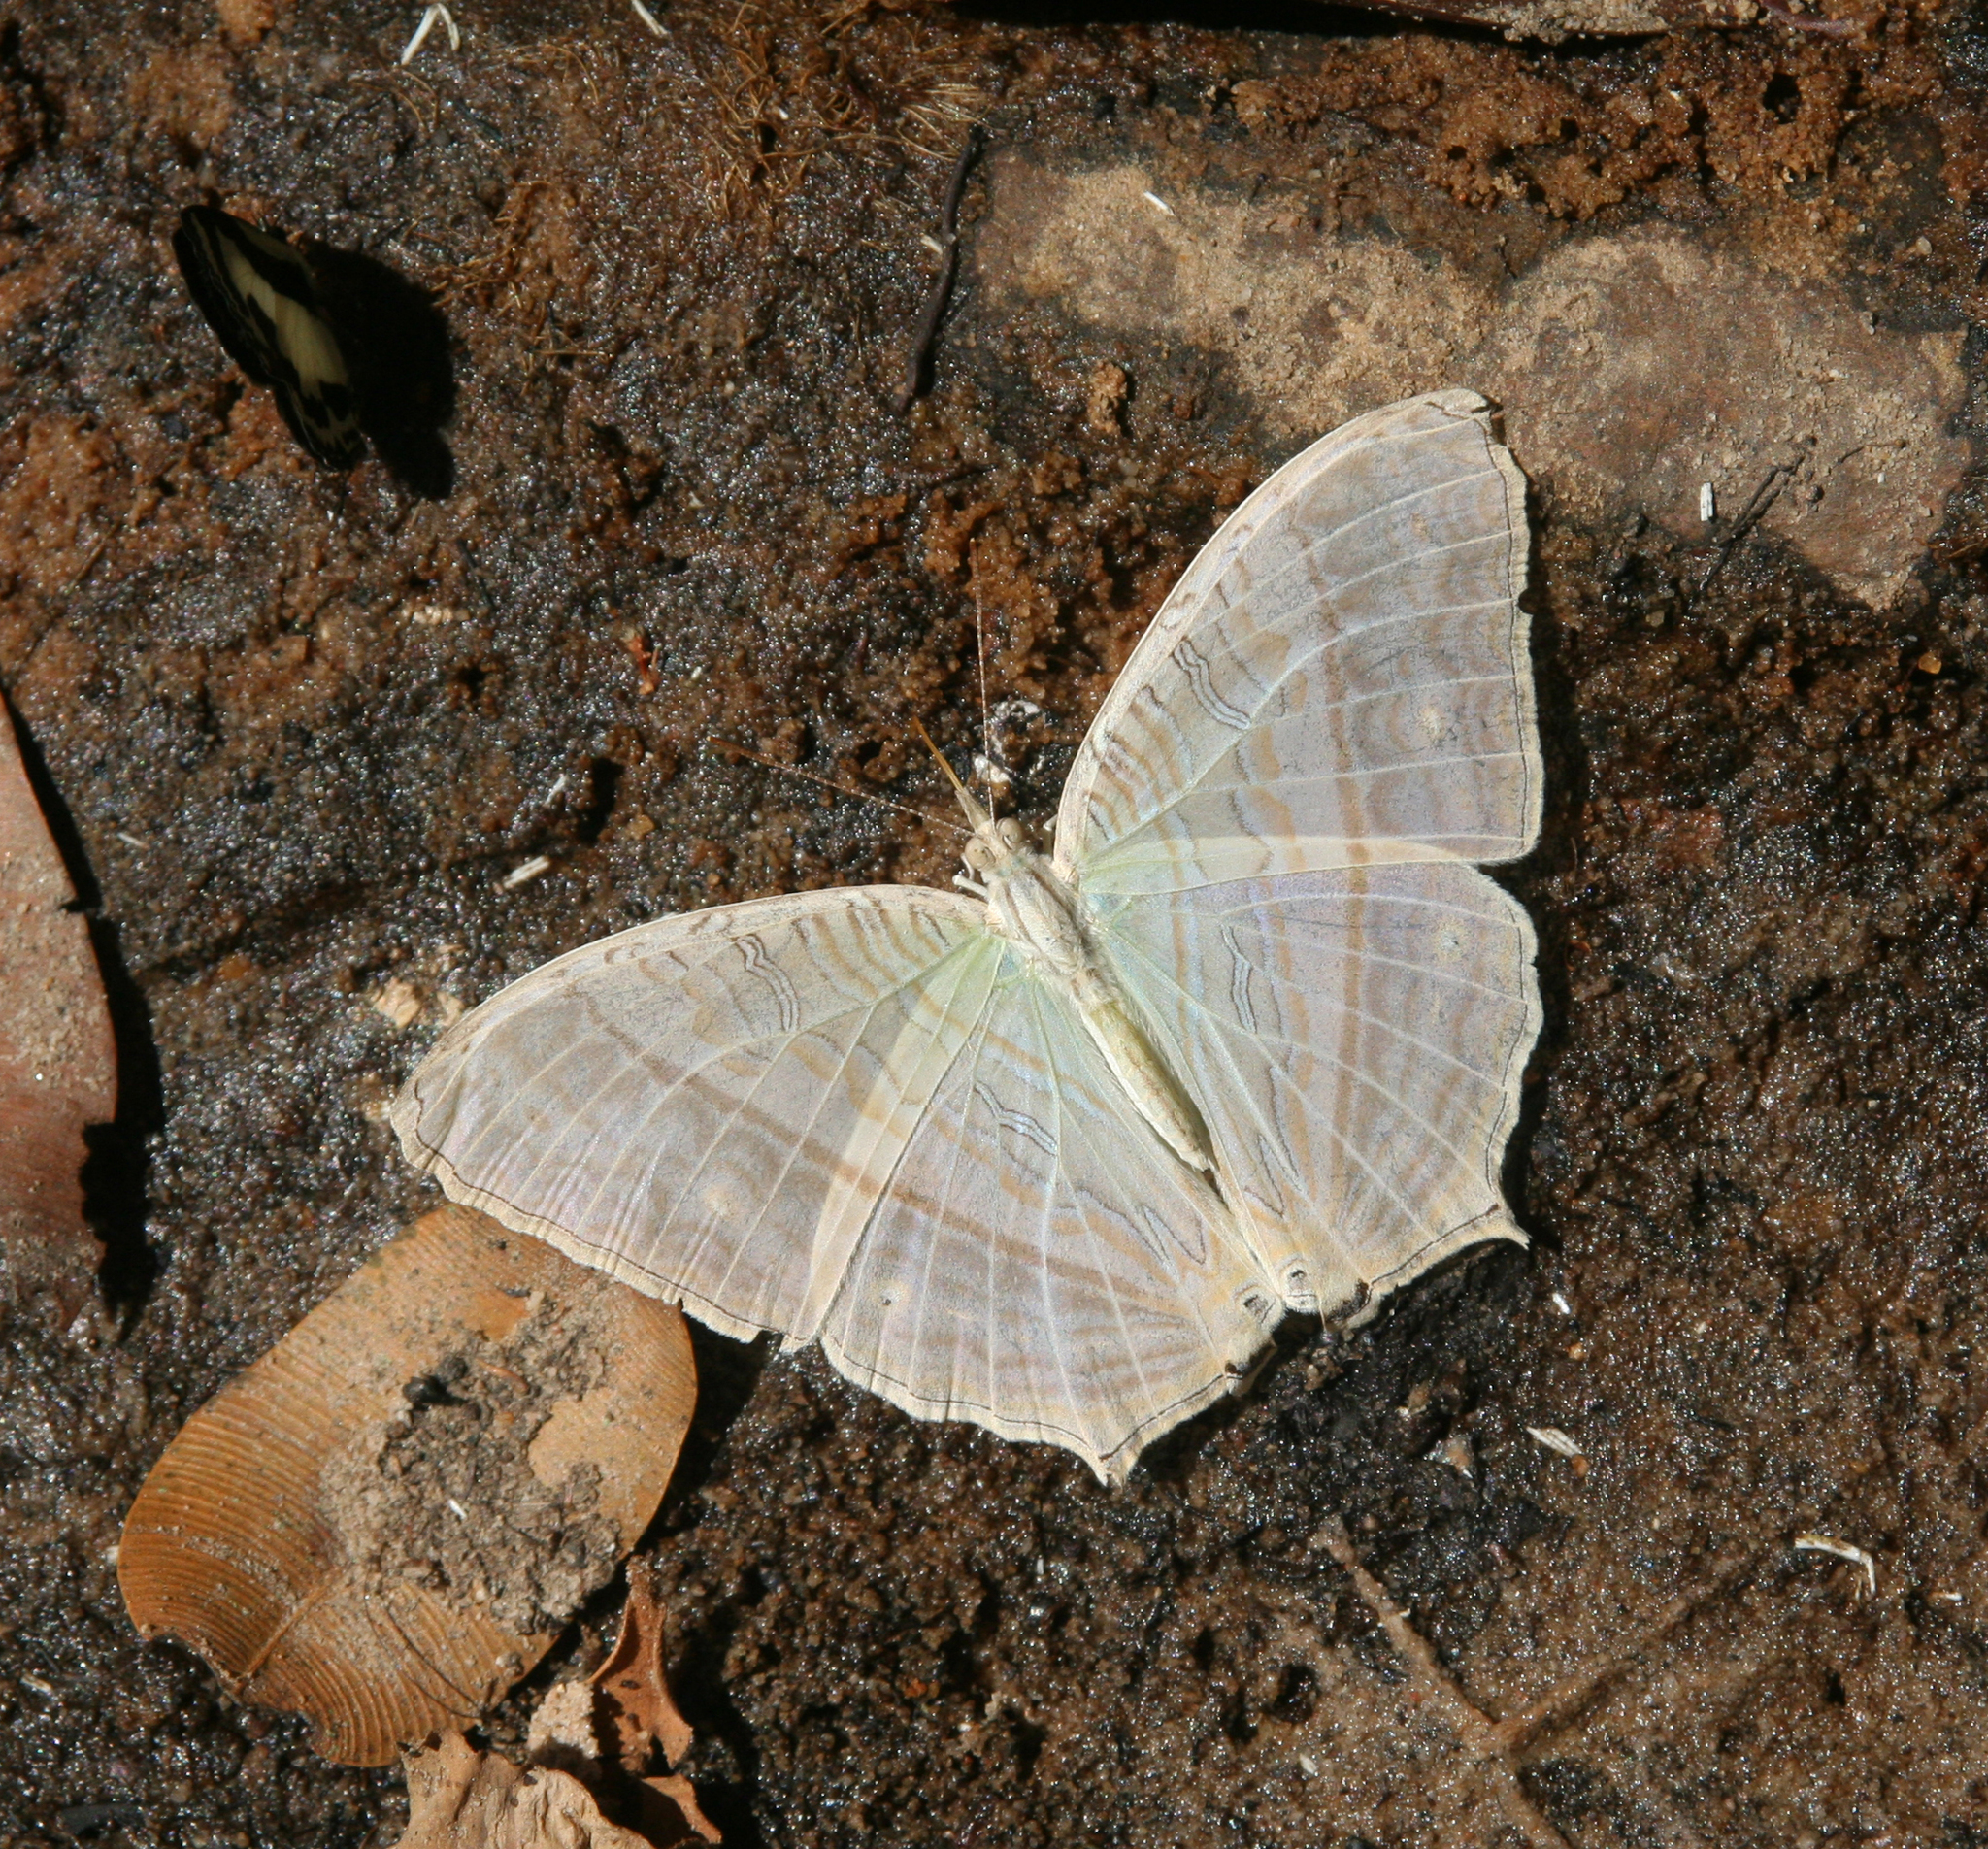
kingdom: Animalia
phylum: Arthropoda
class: Insecta
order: Lepidoptera
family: Nymphalidae
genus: Cyrestis
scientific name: Cyrestis cocles
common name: Marbled map
